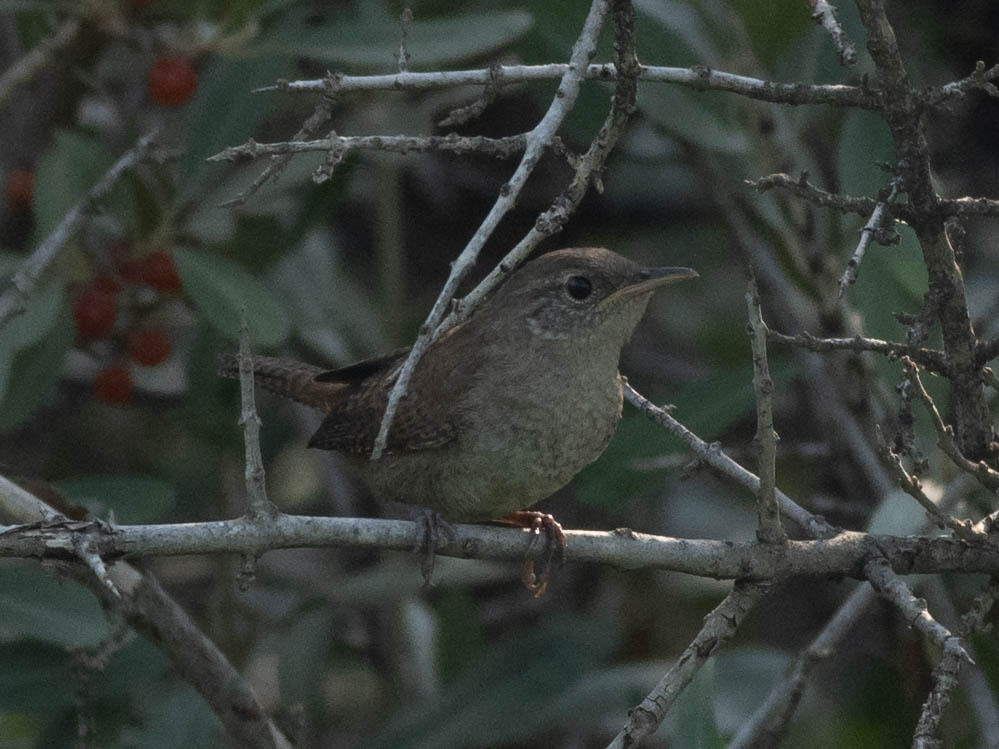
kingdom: Animalia
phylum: Chordata
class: Aves
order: Passeriformes
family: Troglodytidae
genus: Troglodytes
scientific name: Troglodytes aedon
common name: House wren
